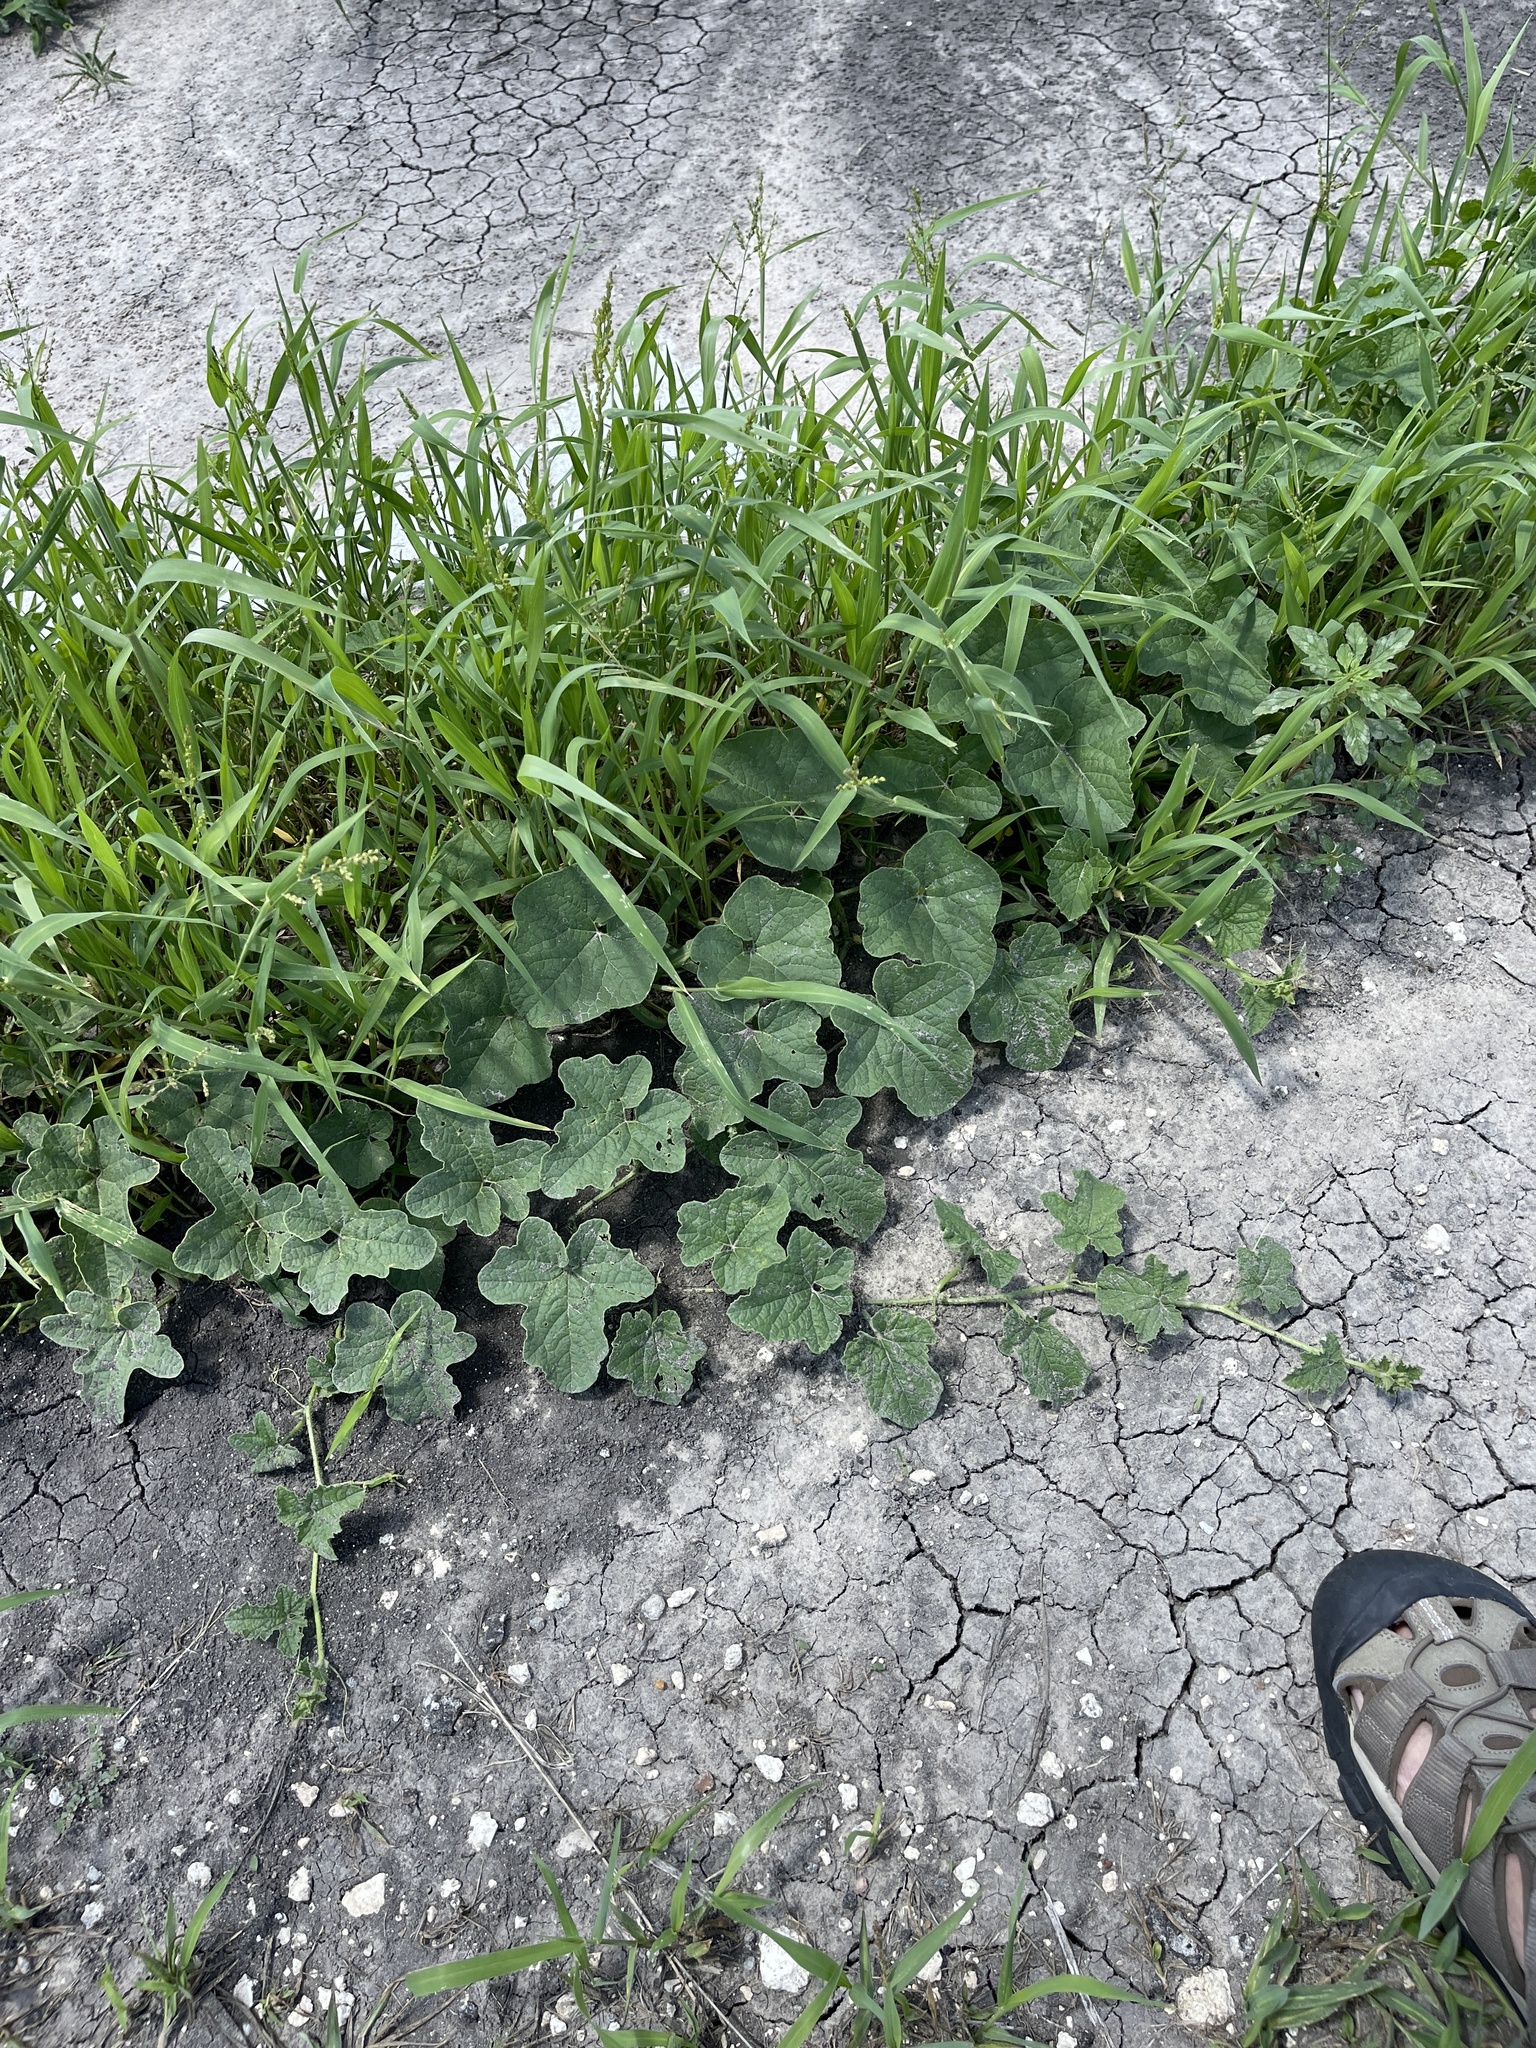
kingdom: Plantae
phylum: Tracheophyta
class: Magnoliopsida
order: Cucurbitales
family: Cucurbitaceae
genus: Cucumis
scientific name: Cucumis melo
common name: Melon
